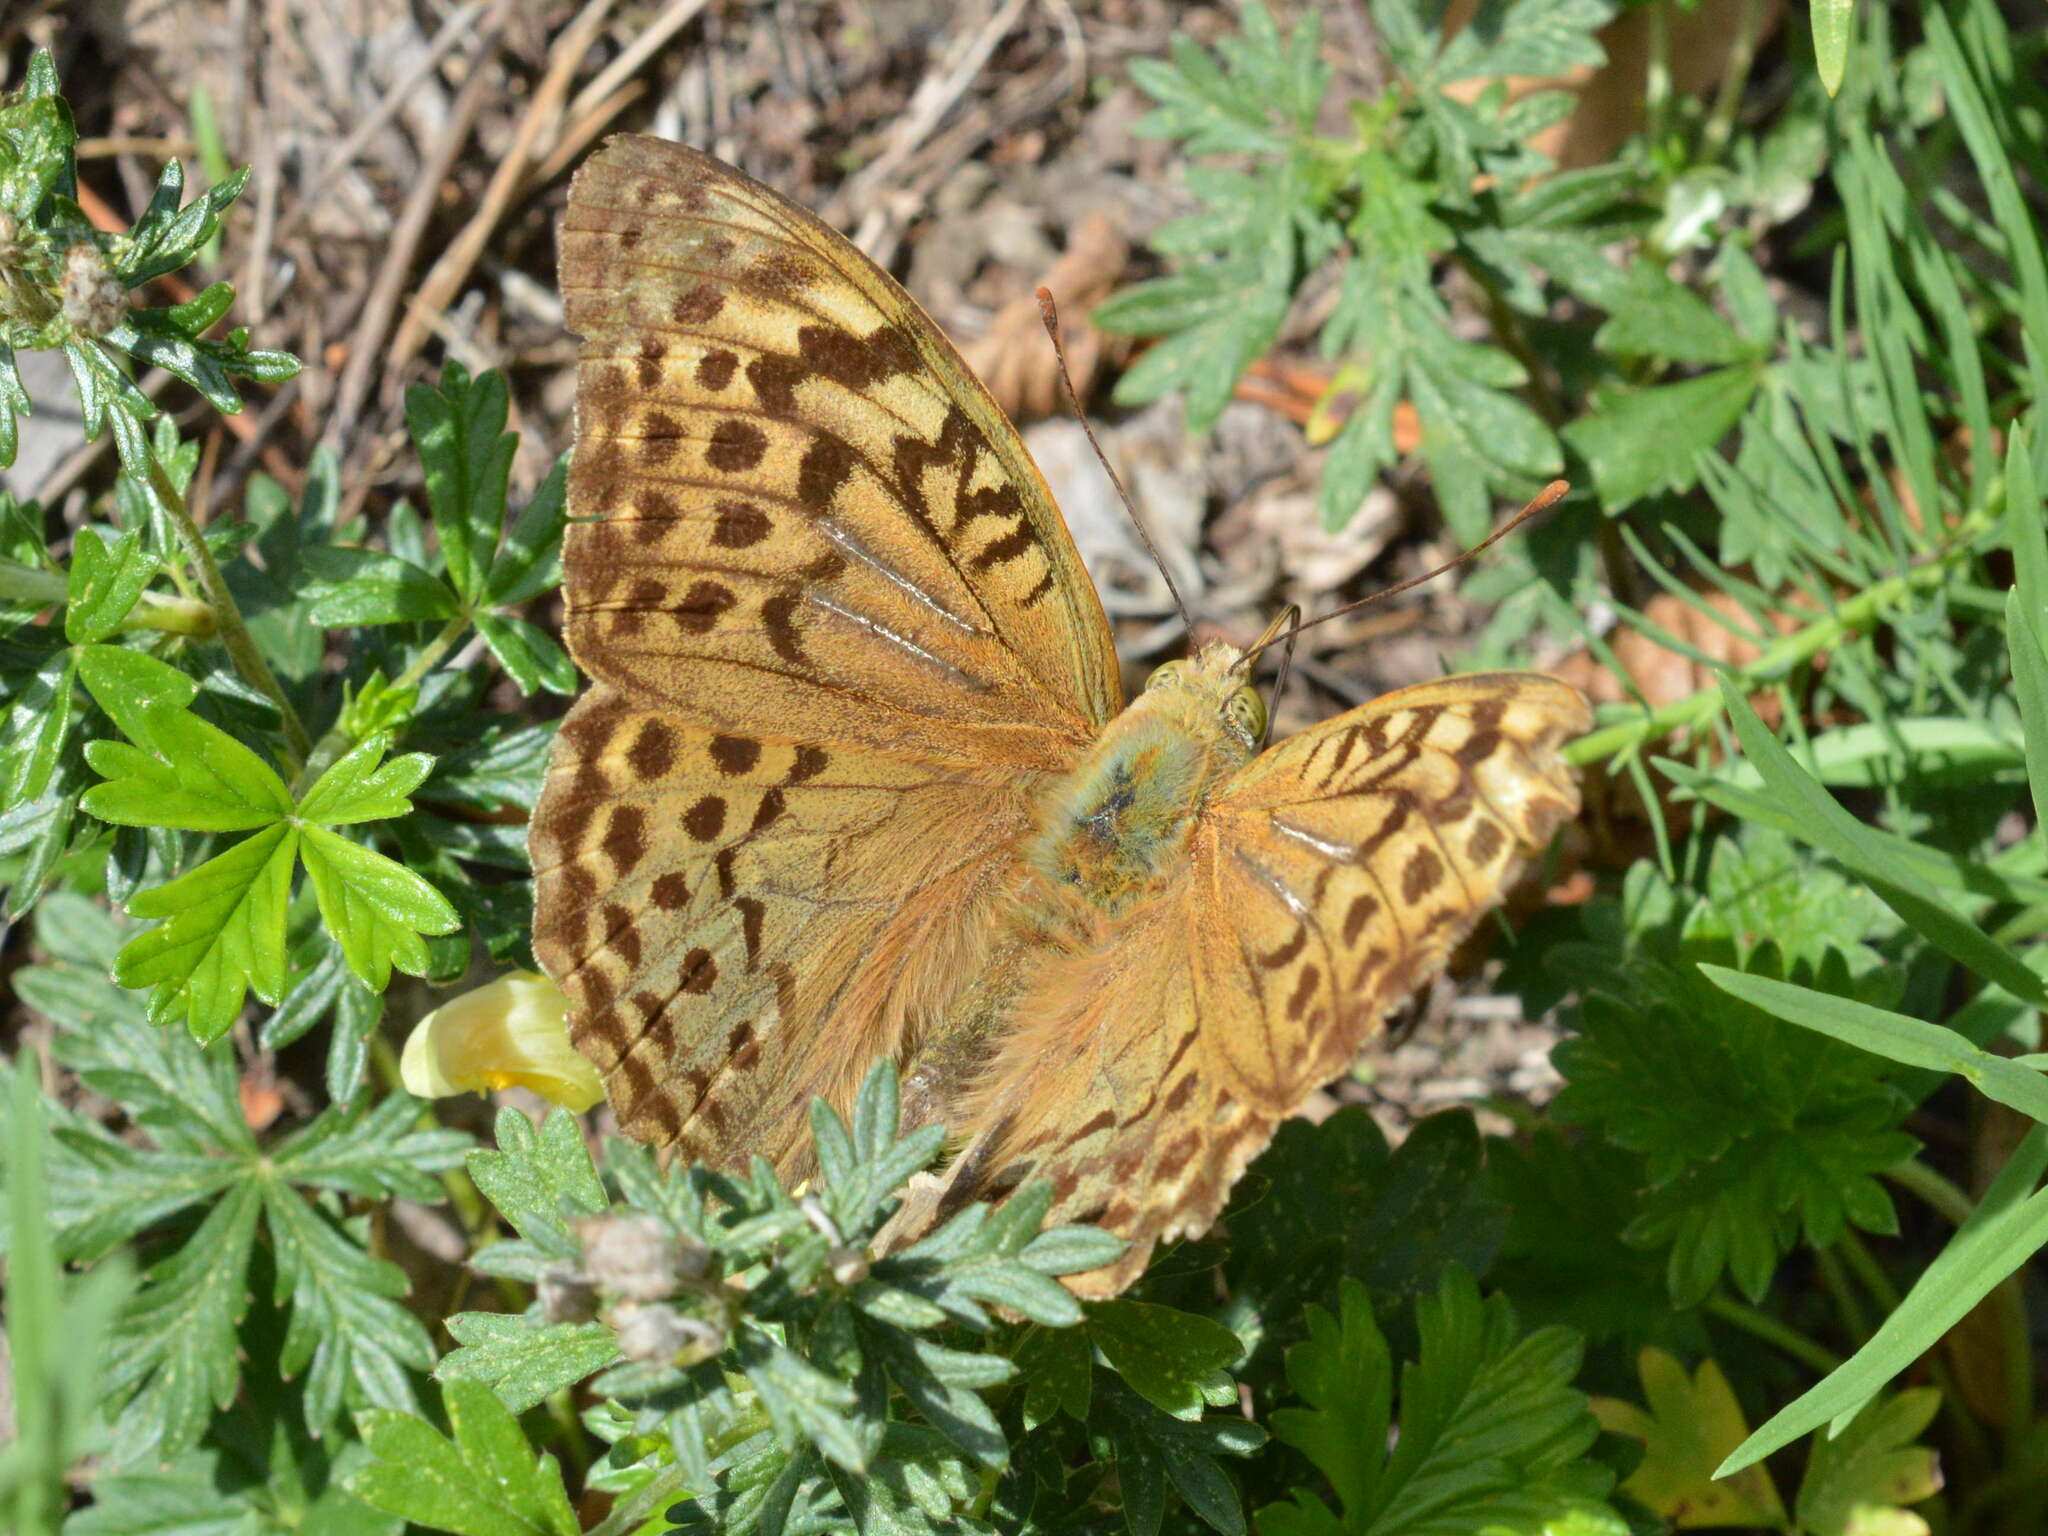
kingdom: Animalia
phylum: Arthropoda
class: Insecta
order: Lepidoptera
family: Nymphalidae
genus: Damora
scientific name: Damora pandora
